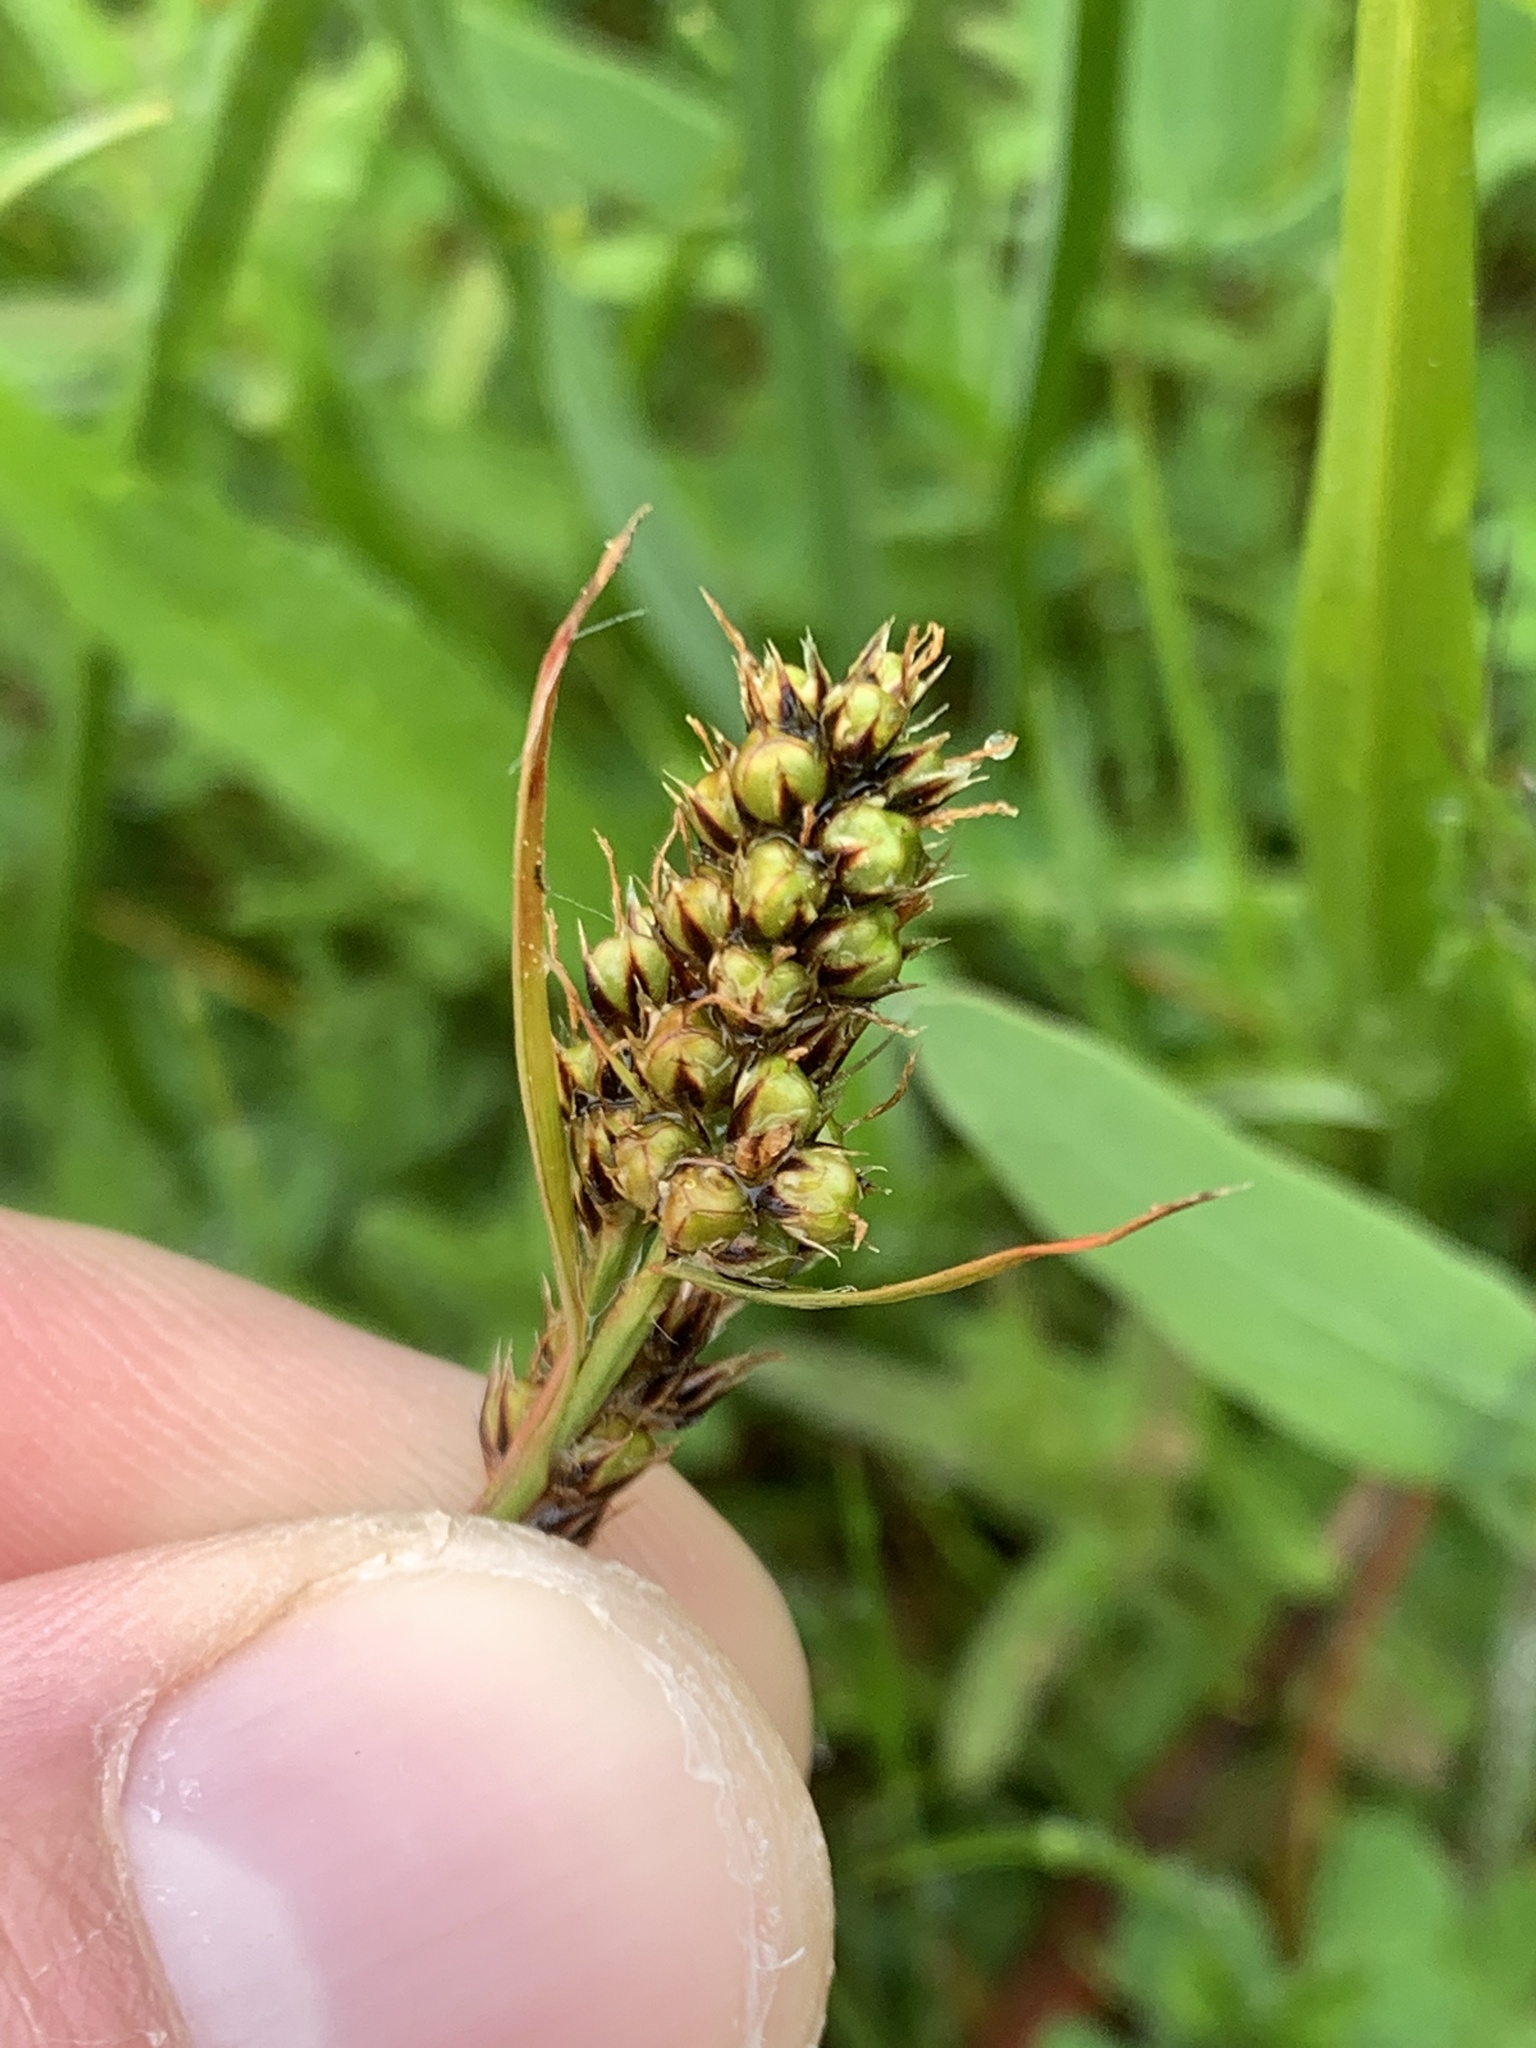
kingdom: Plantae
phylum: Tracheophyta
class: Liliopsida
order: Poales
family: Juncaceae
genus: Luzula
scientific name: Luzula macrantha
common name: Large-anthered woodrush
